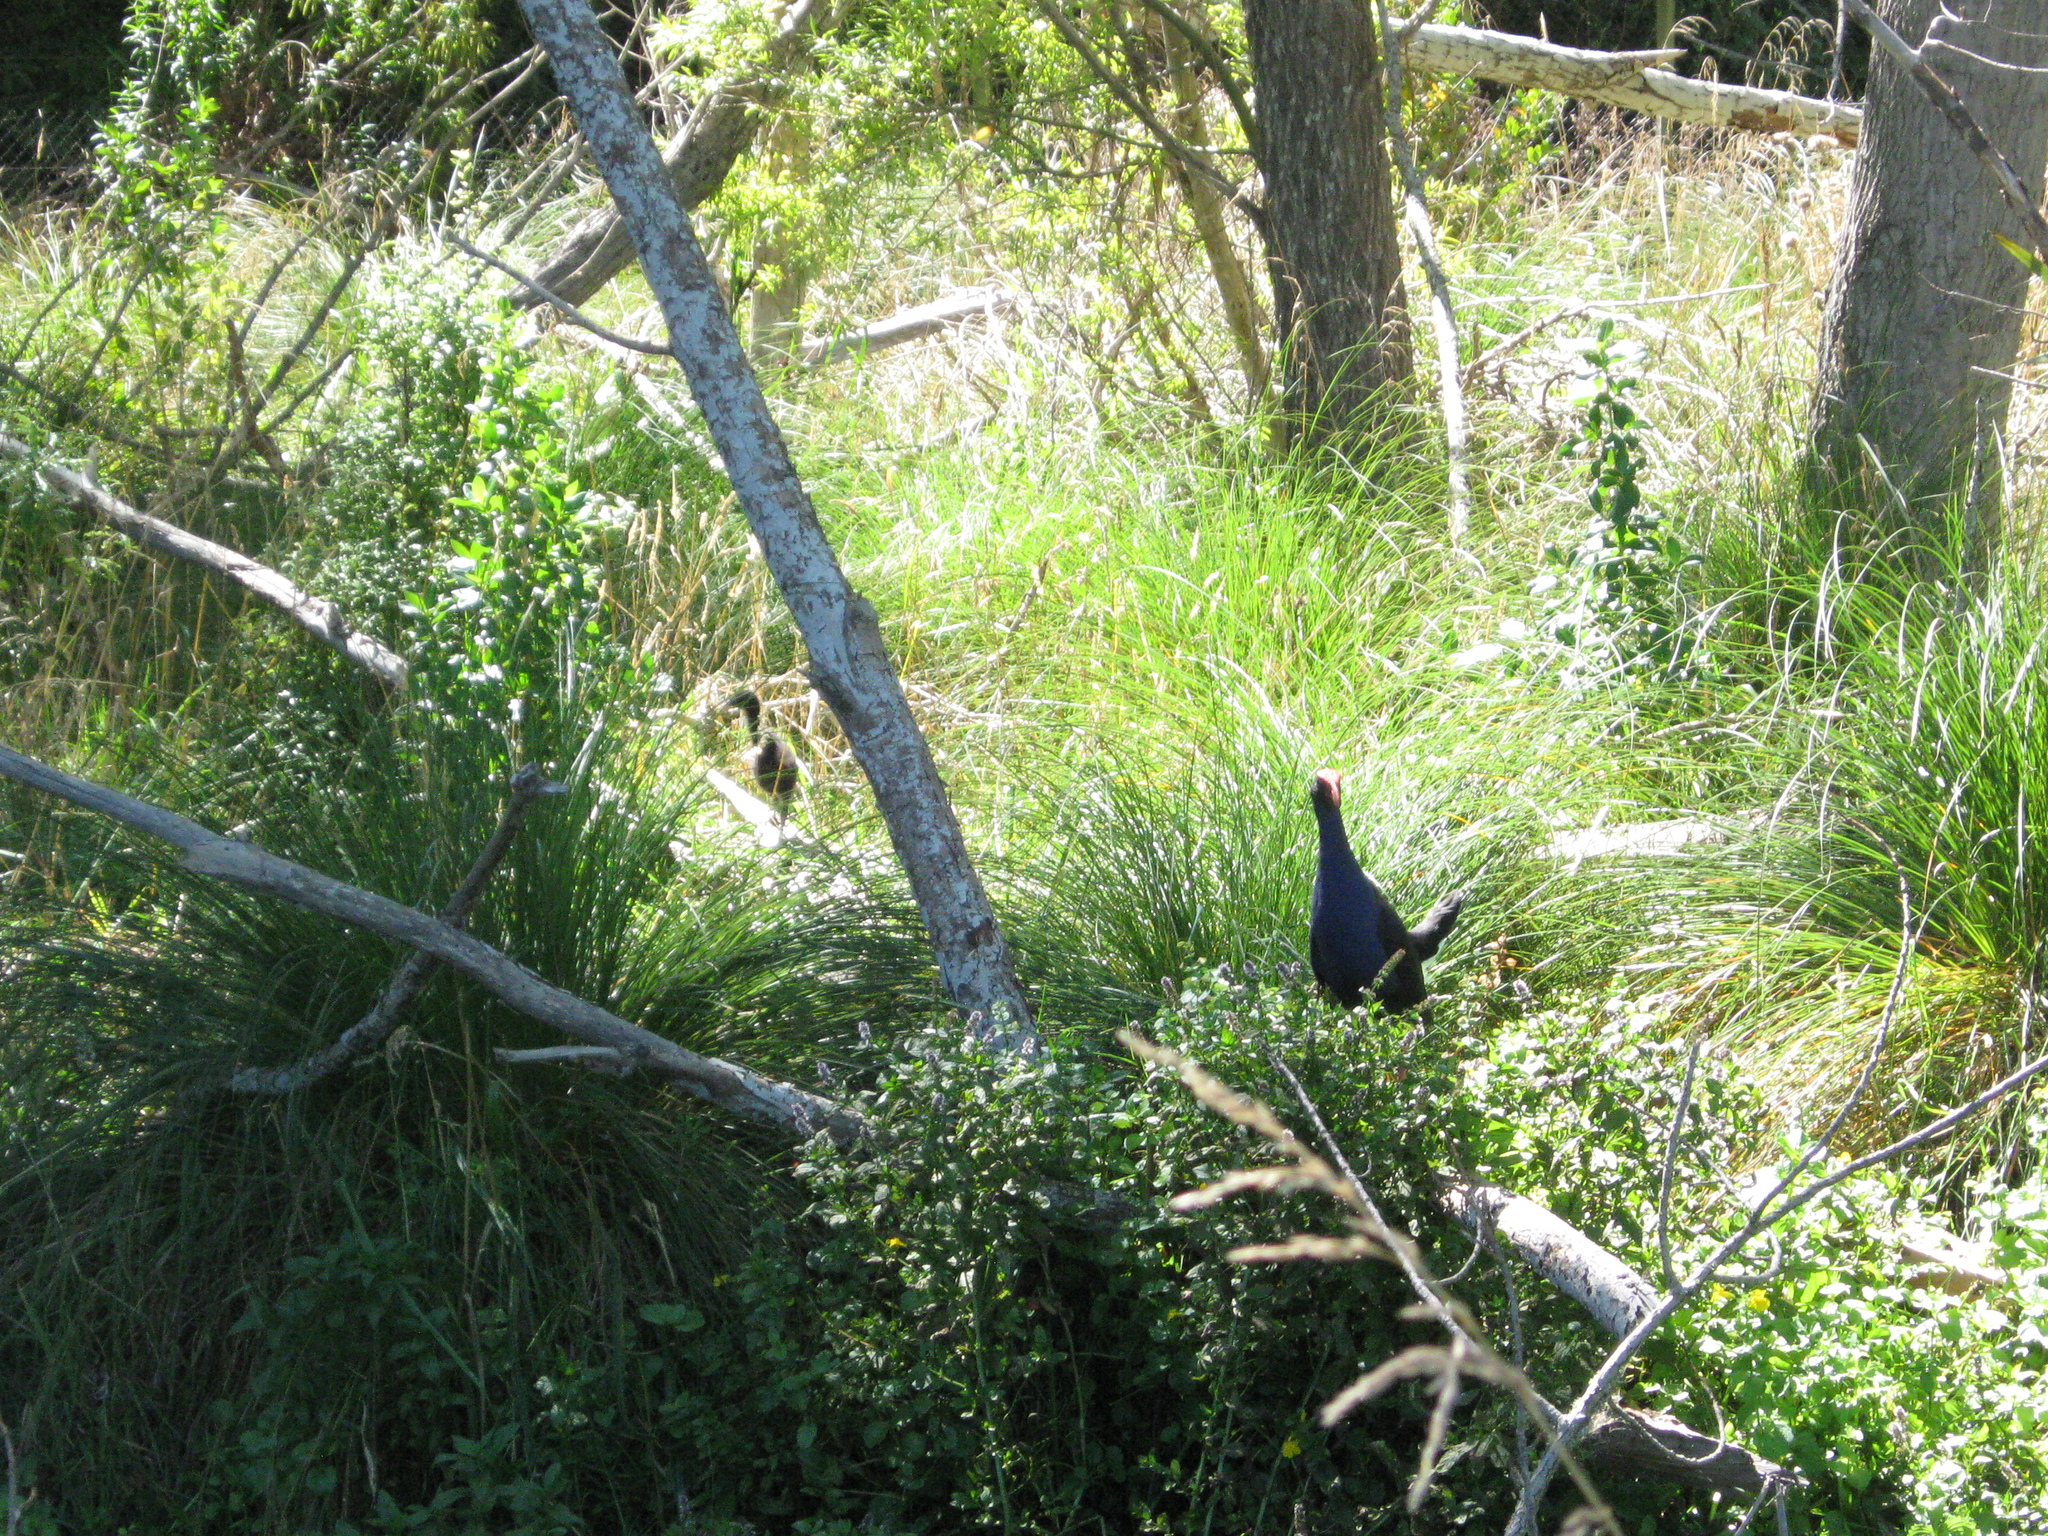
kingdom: Animalia
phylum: Chordata
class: Aves
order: Gruiformes
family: Rallidae
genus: Porphyrio
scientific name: Porphyrio melanotus
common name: Australasian swamphen
